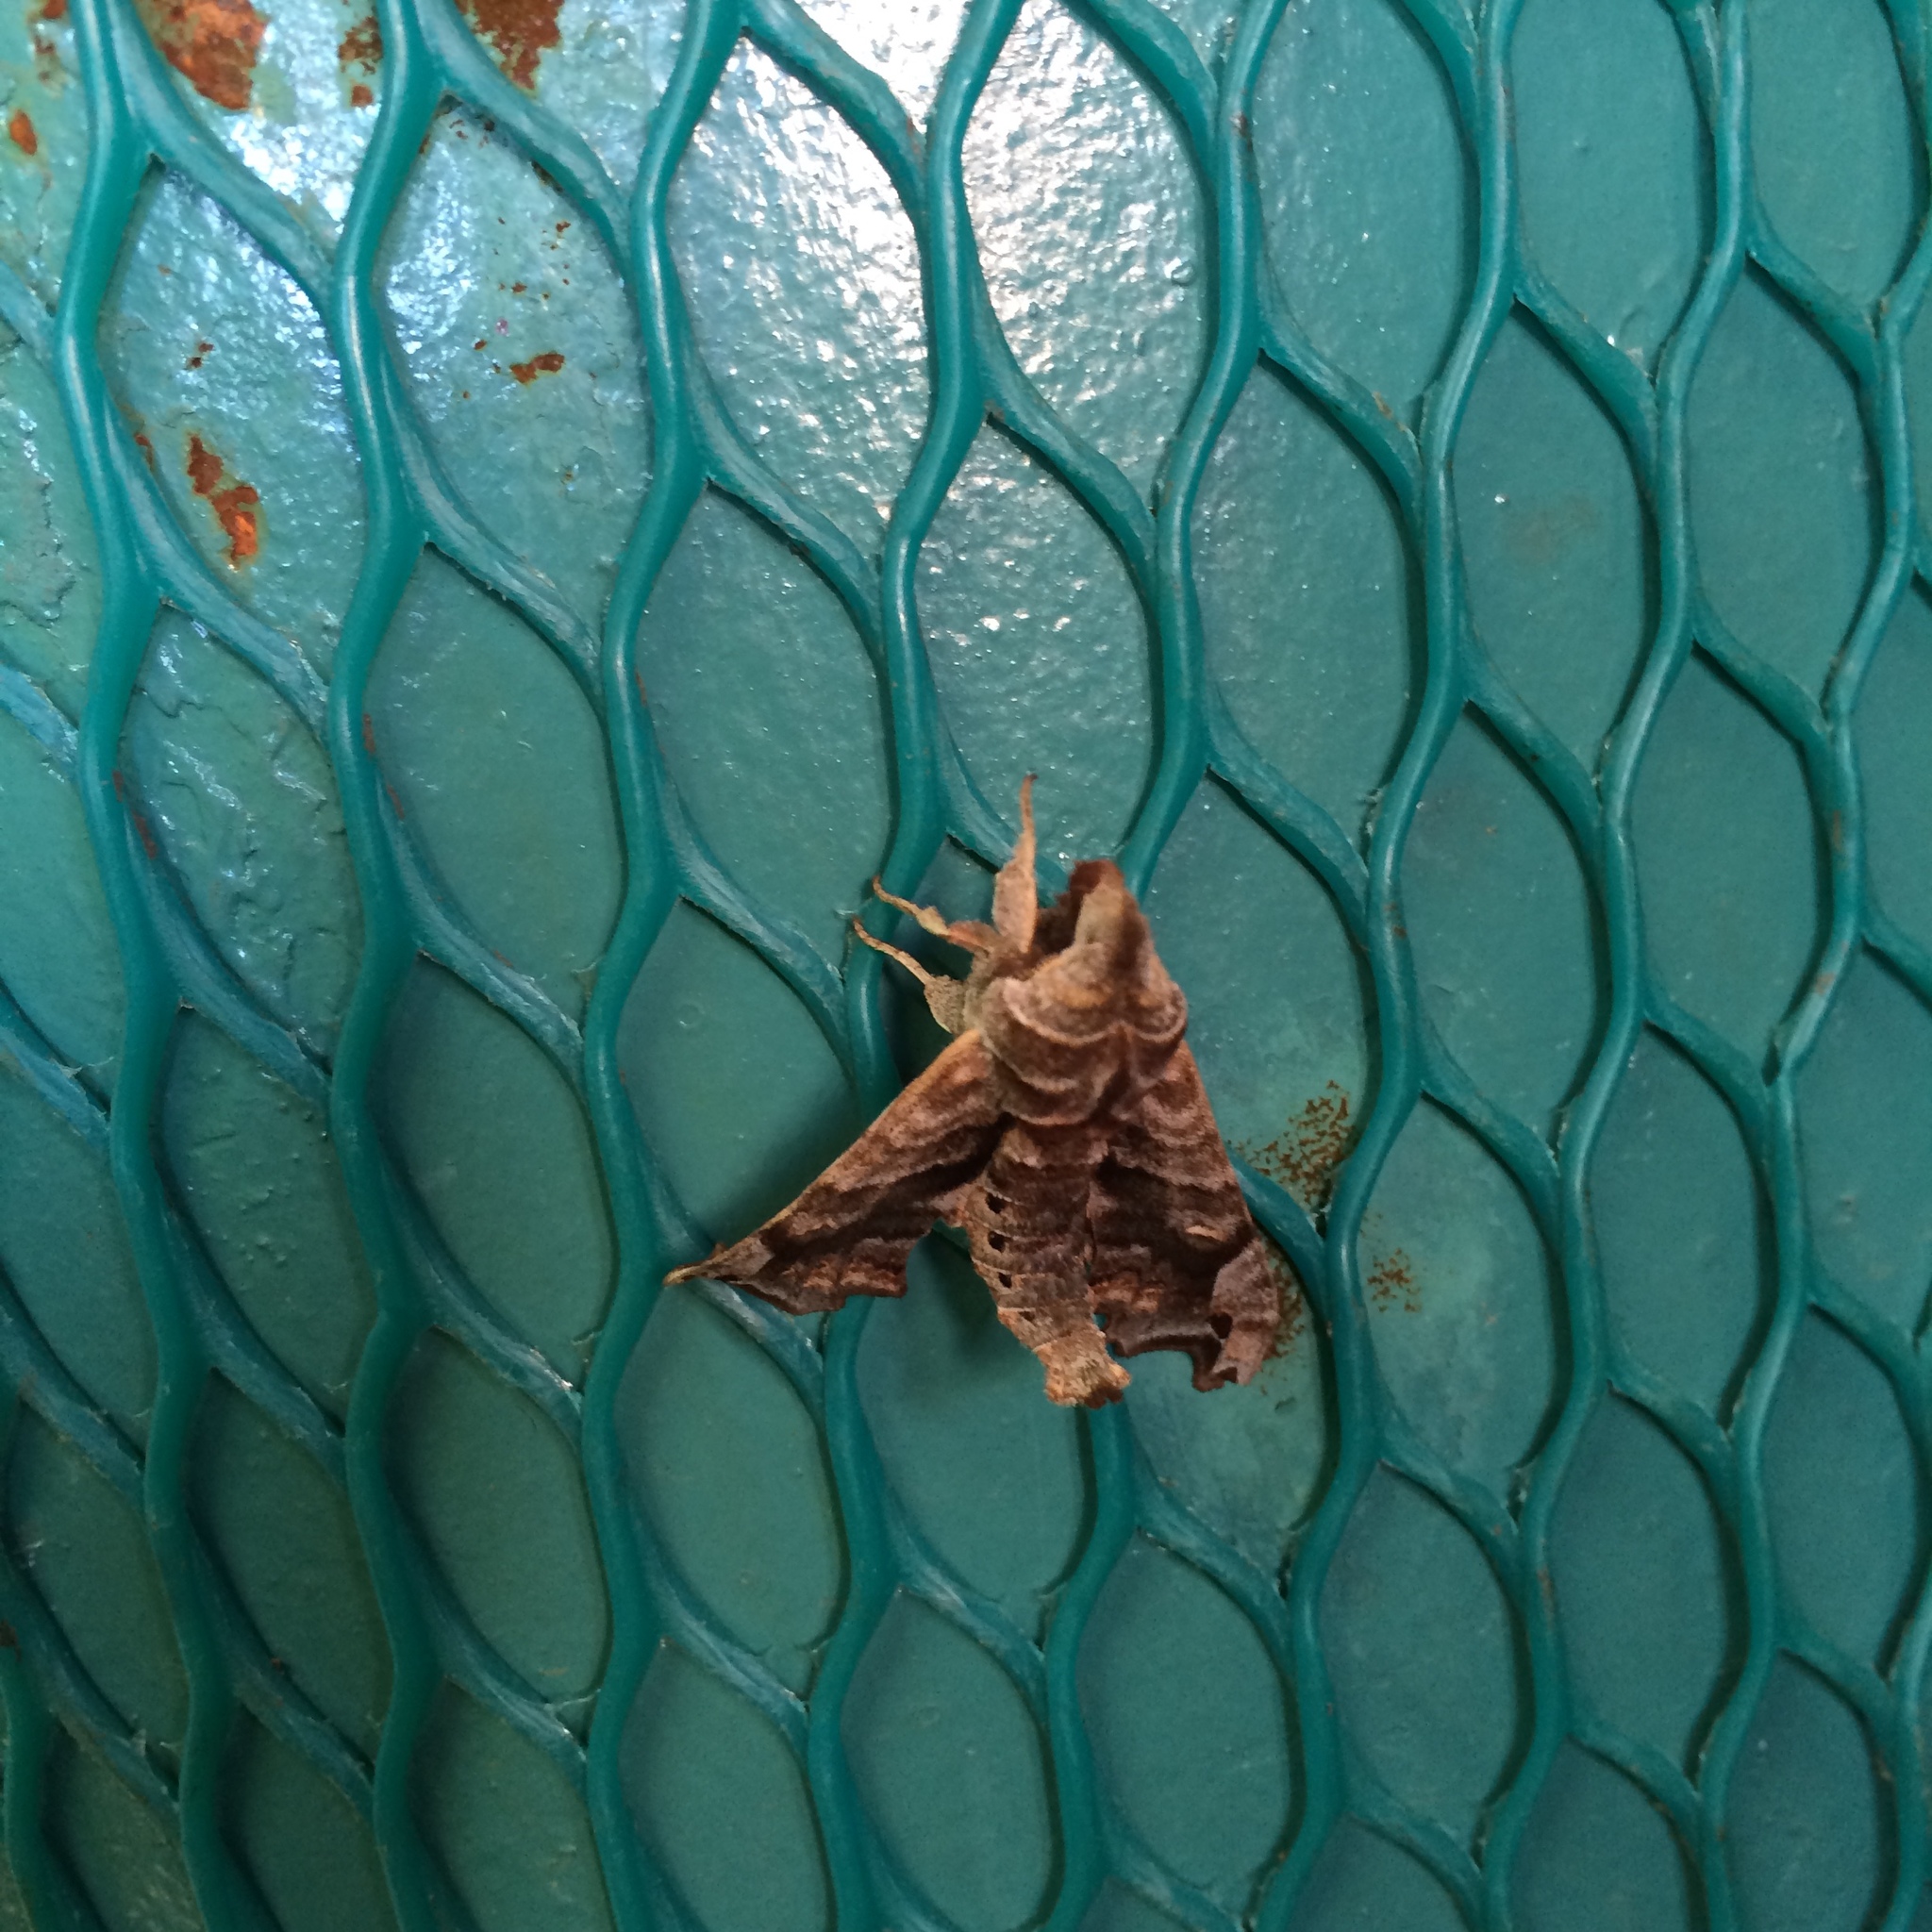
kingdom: Animalia
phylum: Arthropoda
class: Insecta
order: Lepidoptera
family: Sphingidae
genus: Deidamia
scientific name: Deidamia inscriptum
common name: Lettered sphinx
